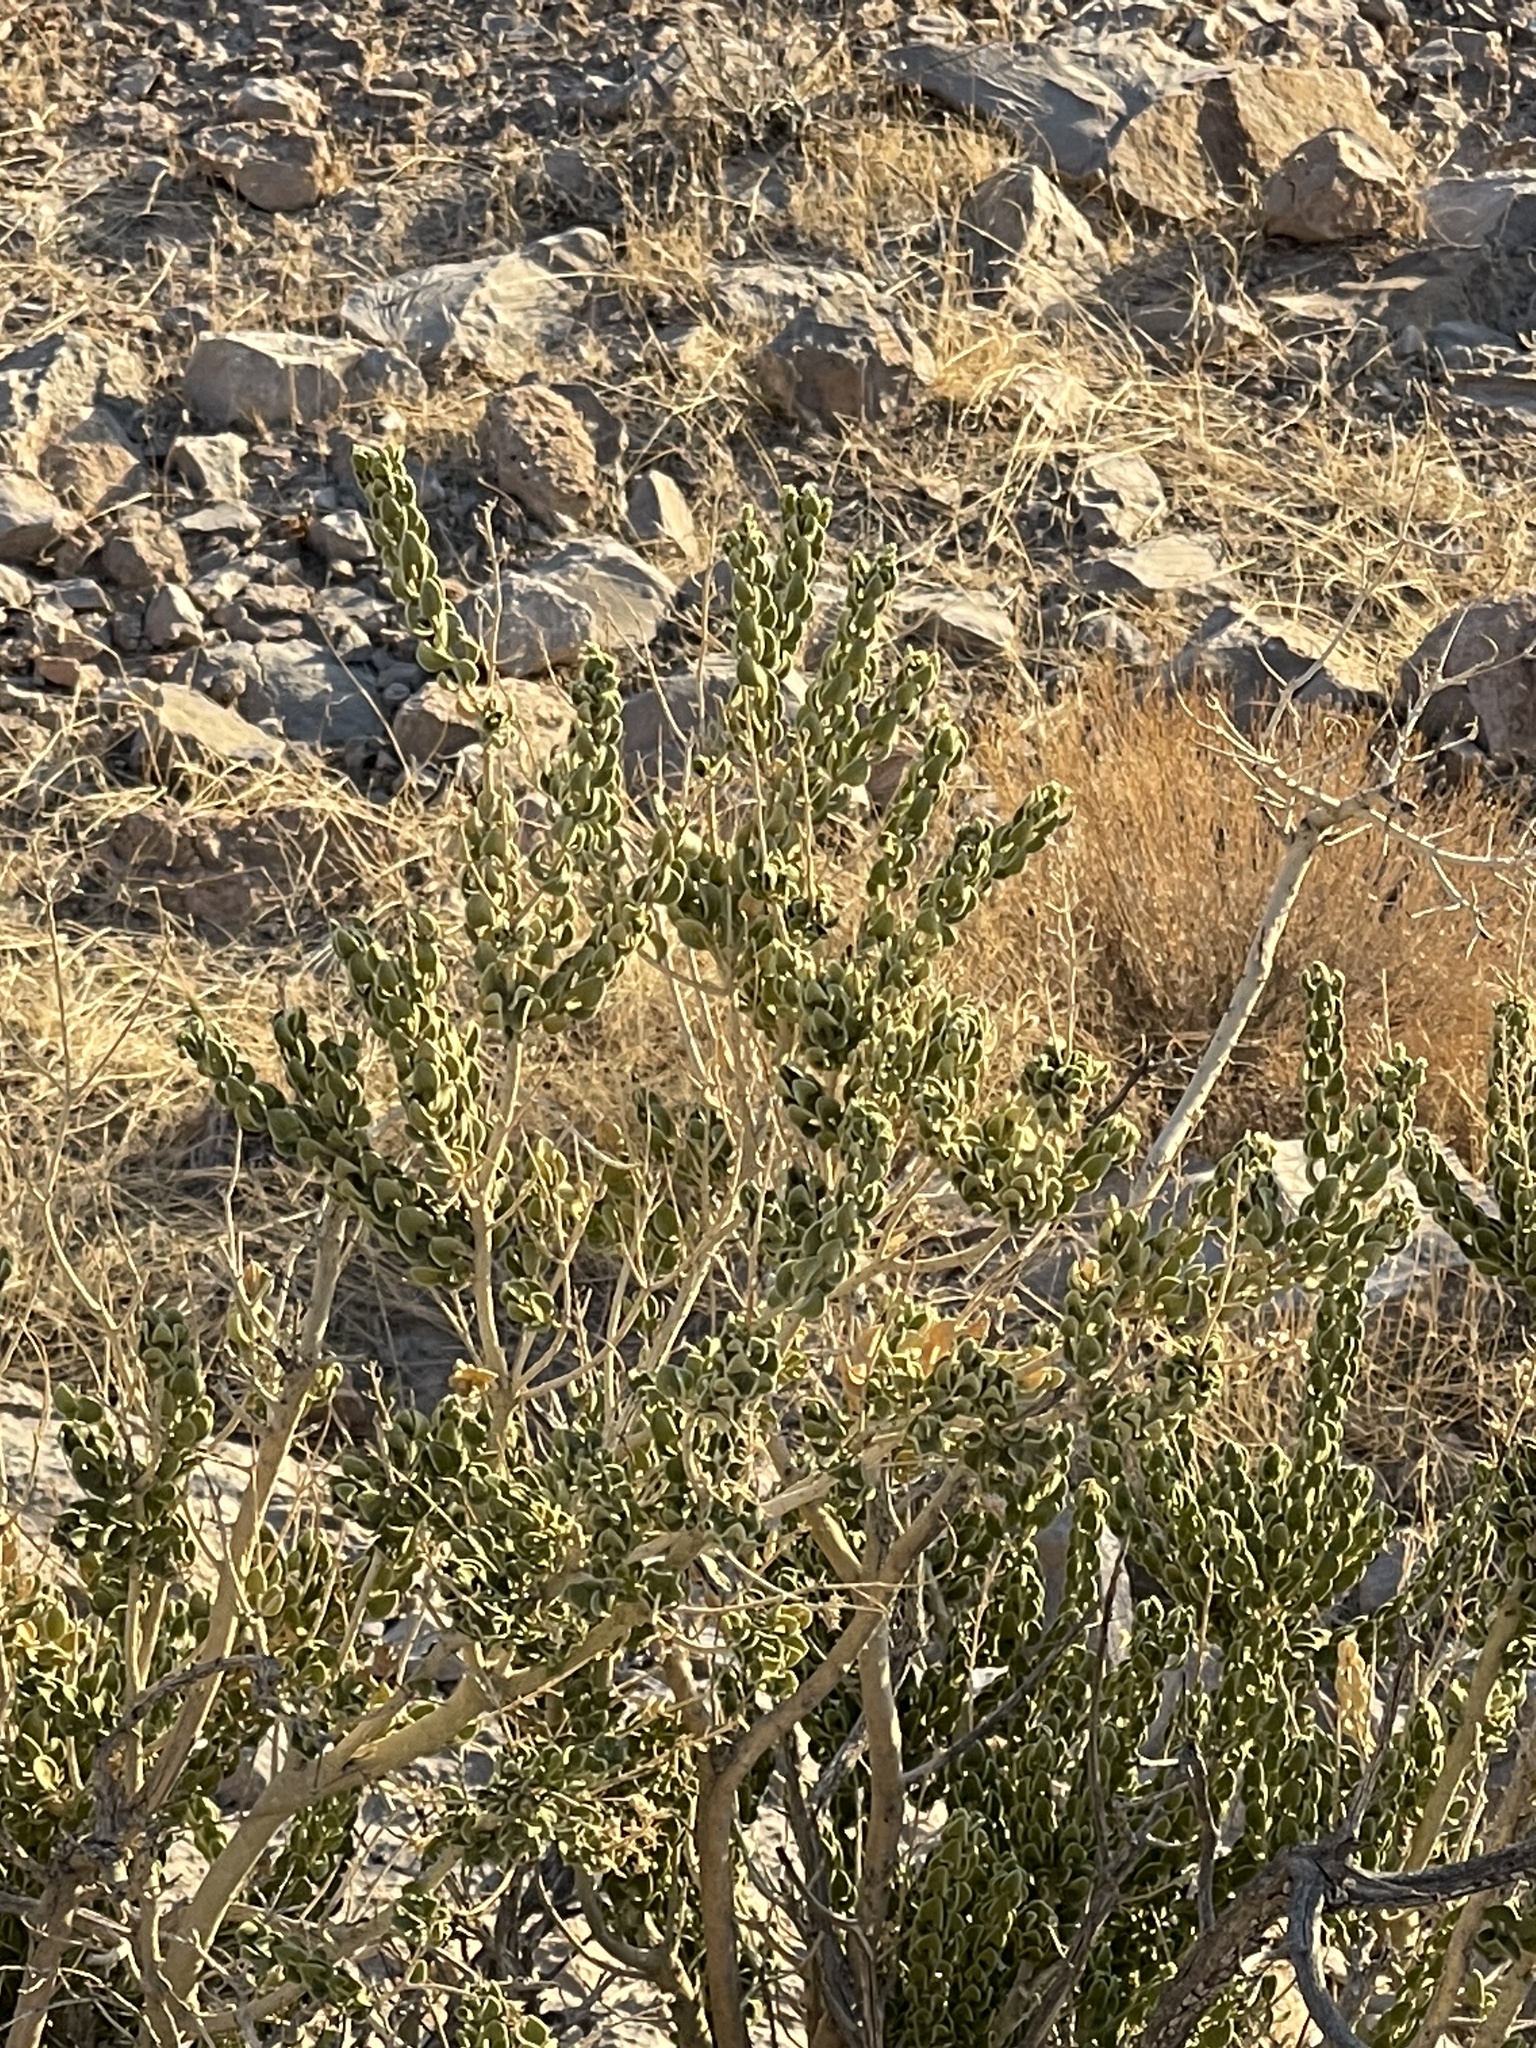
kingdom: Plantae
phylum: Tracheophyta
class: Magnoliopsida
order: Celastrales
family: Celastraceae
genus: Mortonia
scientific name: Mortonia utahensis
